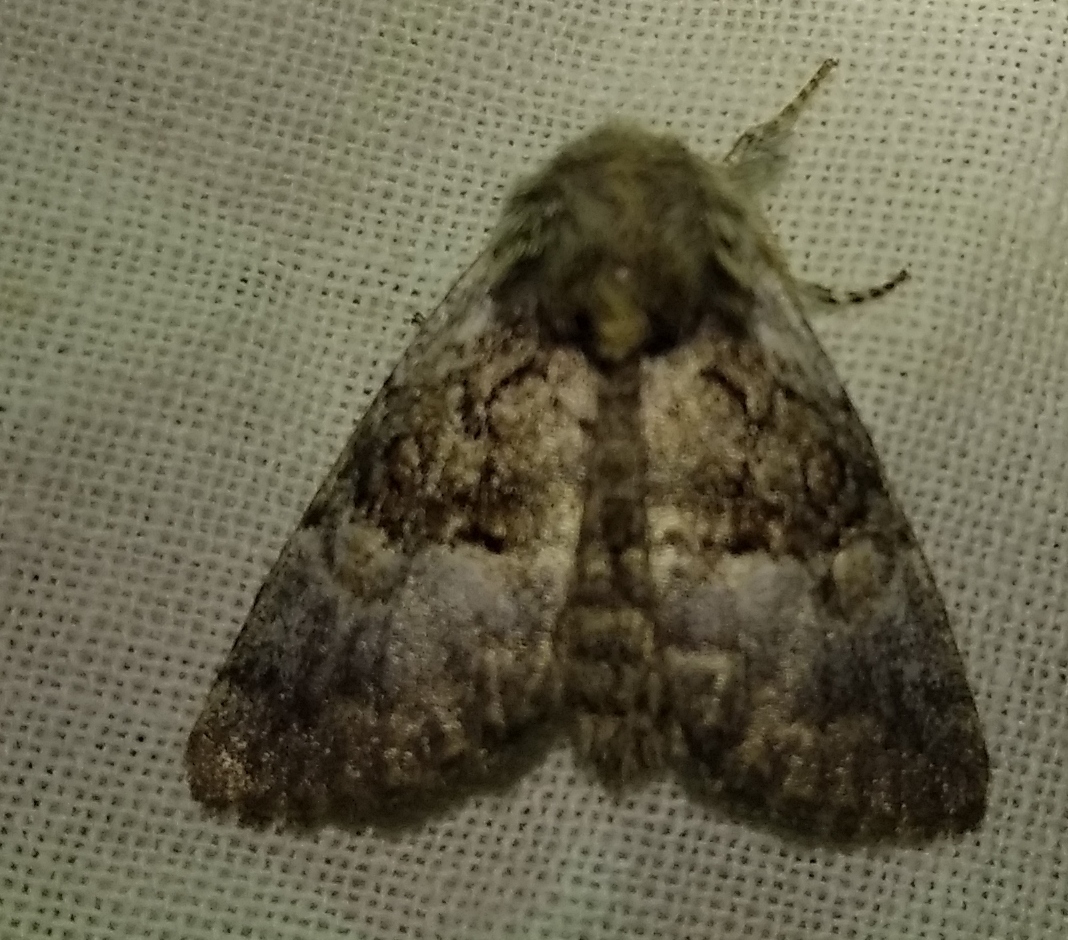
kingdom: Animalia
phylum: Arthropoda
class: Insecta
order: Lepidoptera
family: Noctuidae
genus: Colocasia
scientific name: Colocasia coryli
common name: Nut-tree tussock
